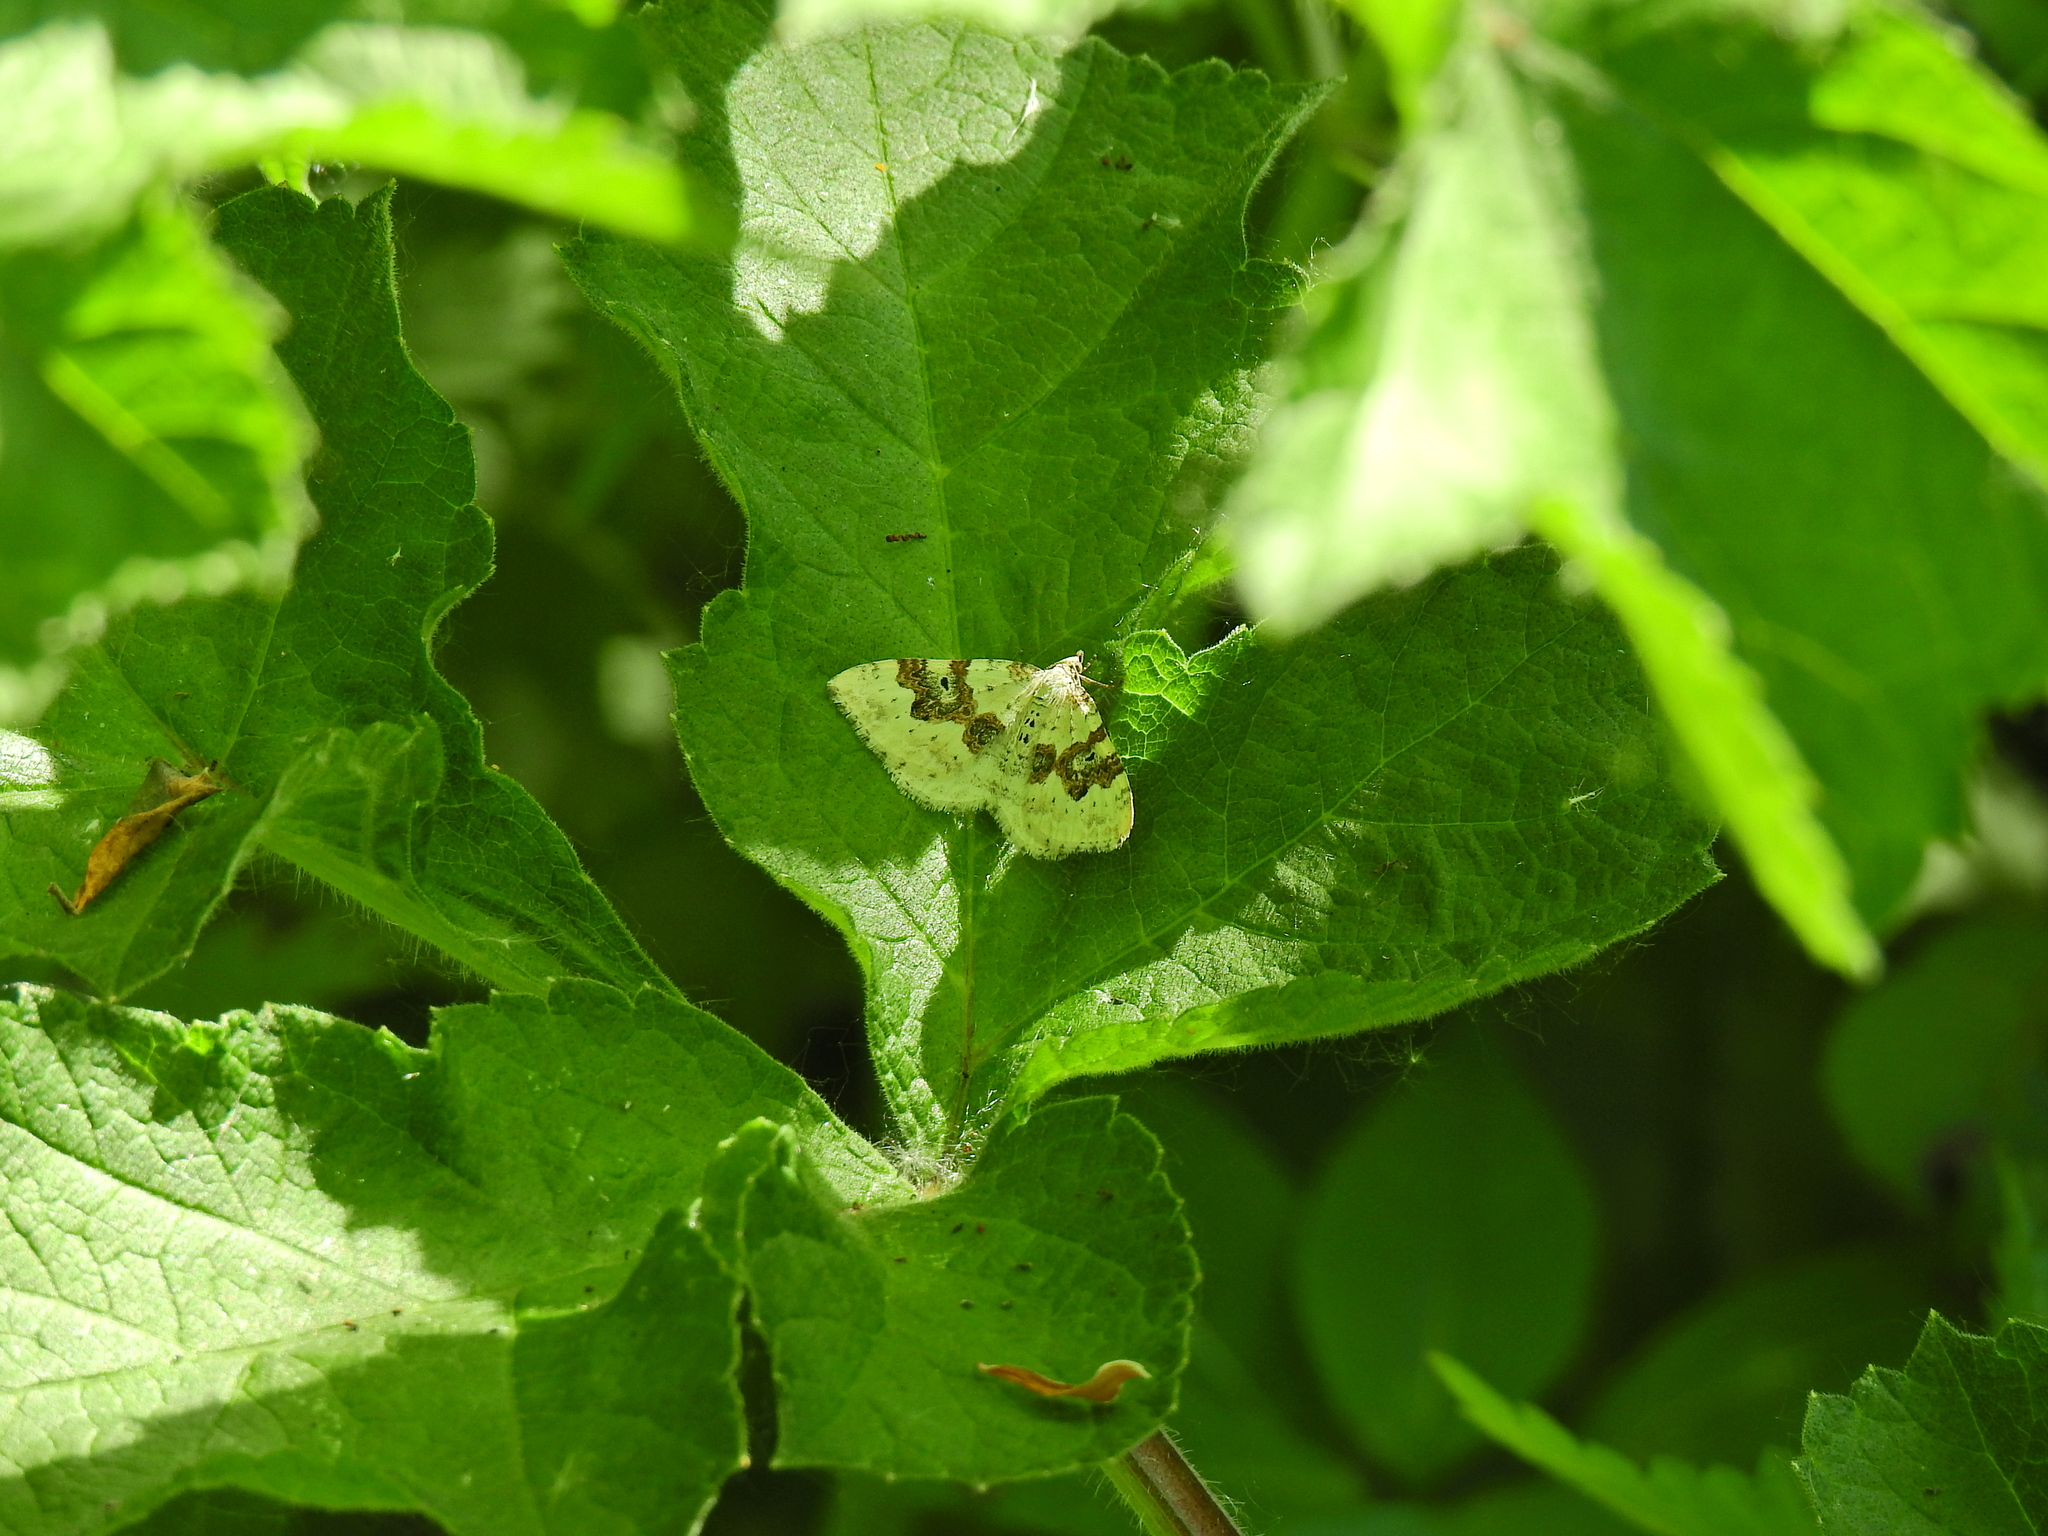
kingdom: Animalia
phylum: Arthropoda
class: Insecta
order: Lepidoptera
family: Geometridae
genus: Xanthorhoe
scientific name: Xanthorhoe montanata
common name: Silver-ground carpet
